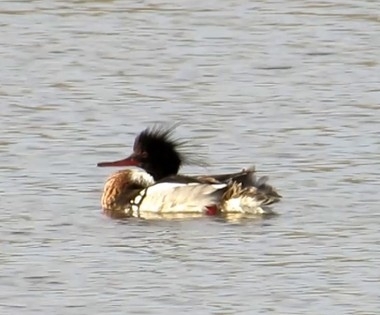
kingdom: Animalia
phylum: Chordata
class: Aves
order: Anseriformes
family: Anatidae
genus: Mergus
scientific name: Mergus serrator
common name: Red-breasted merganser
